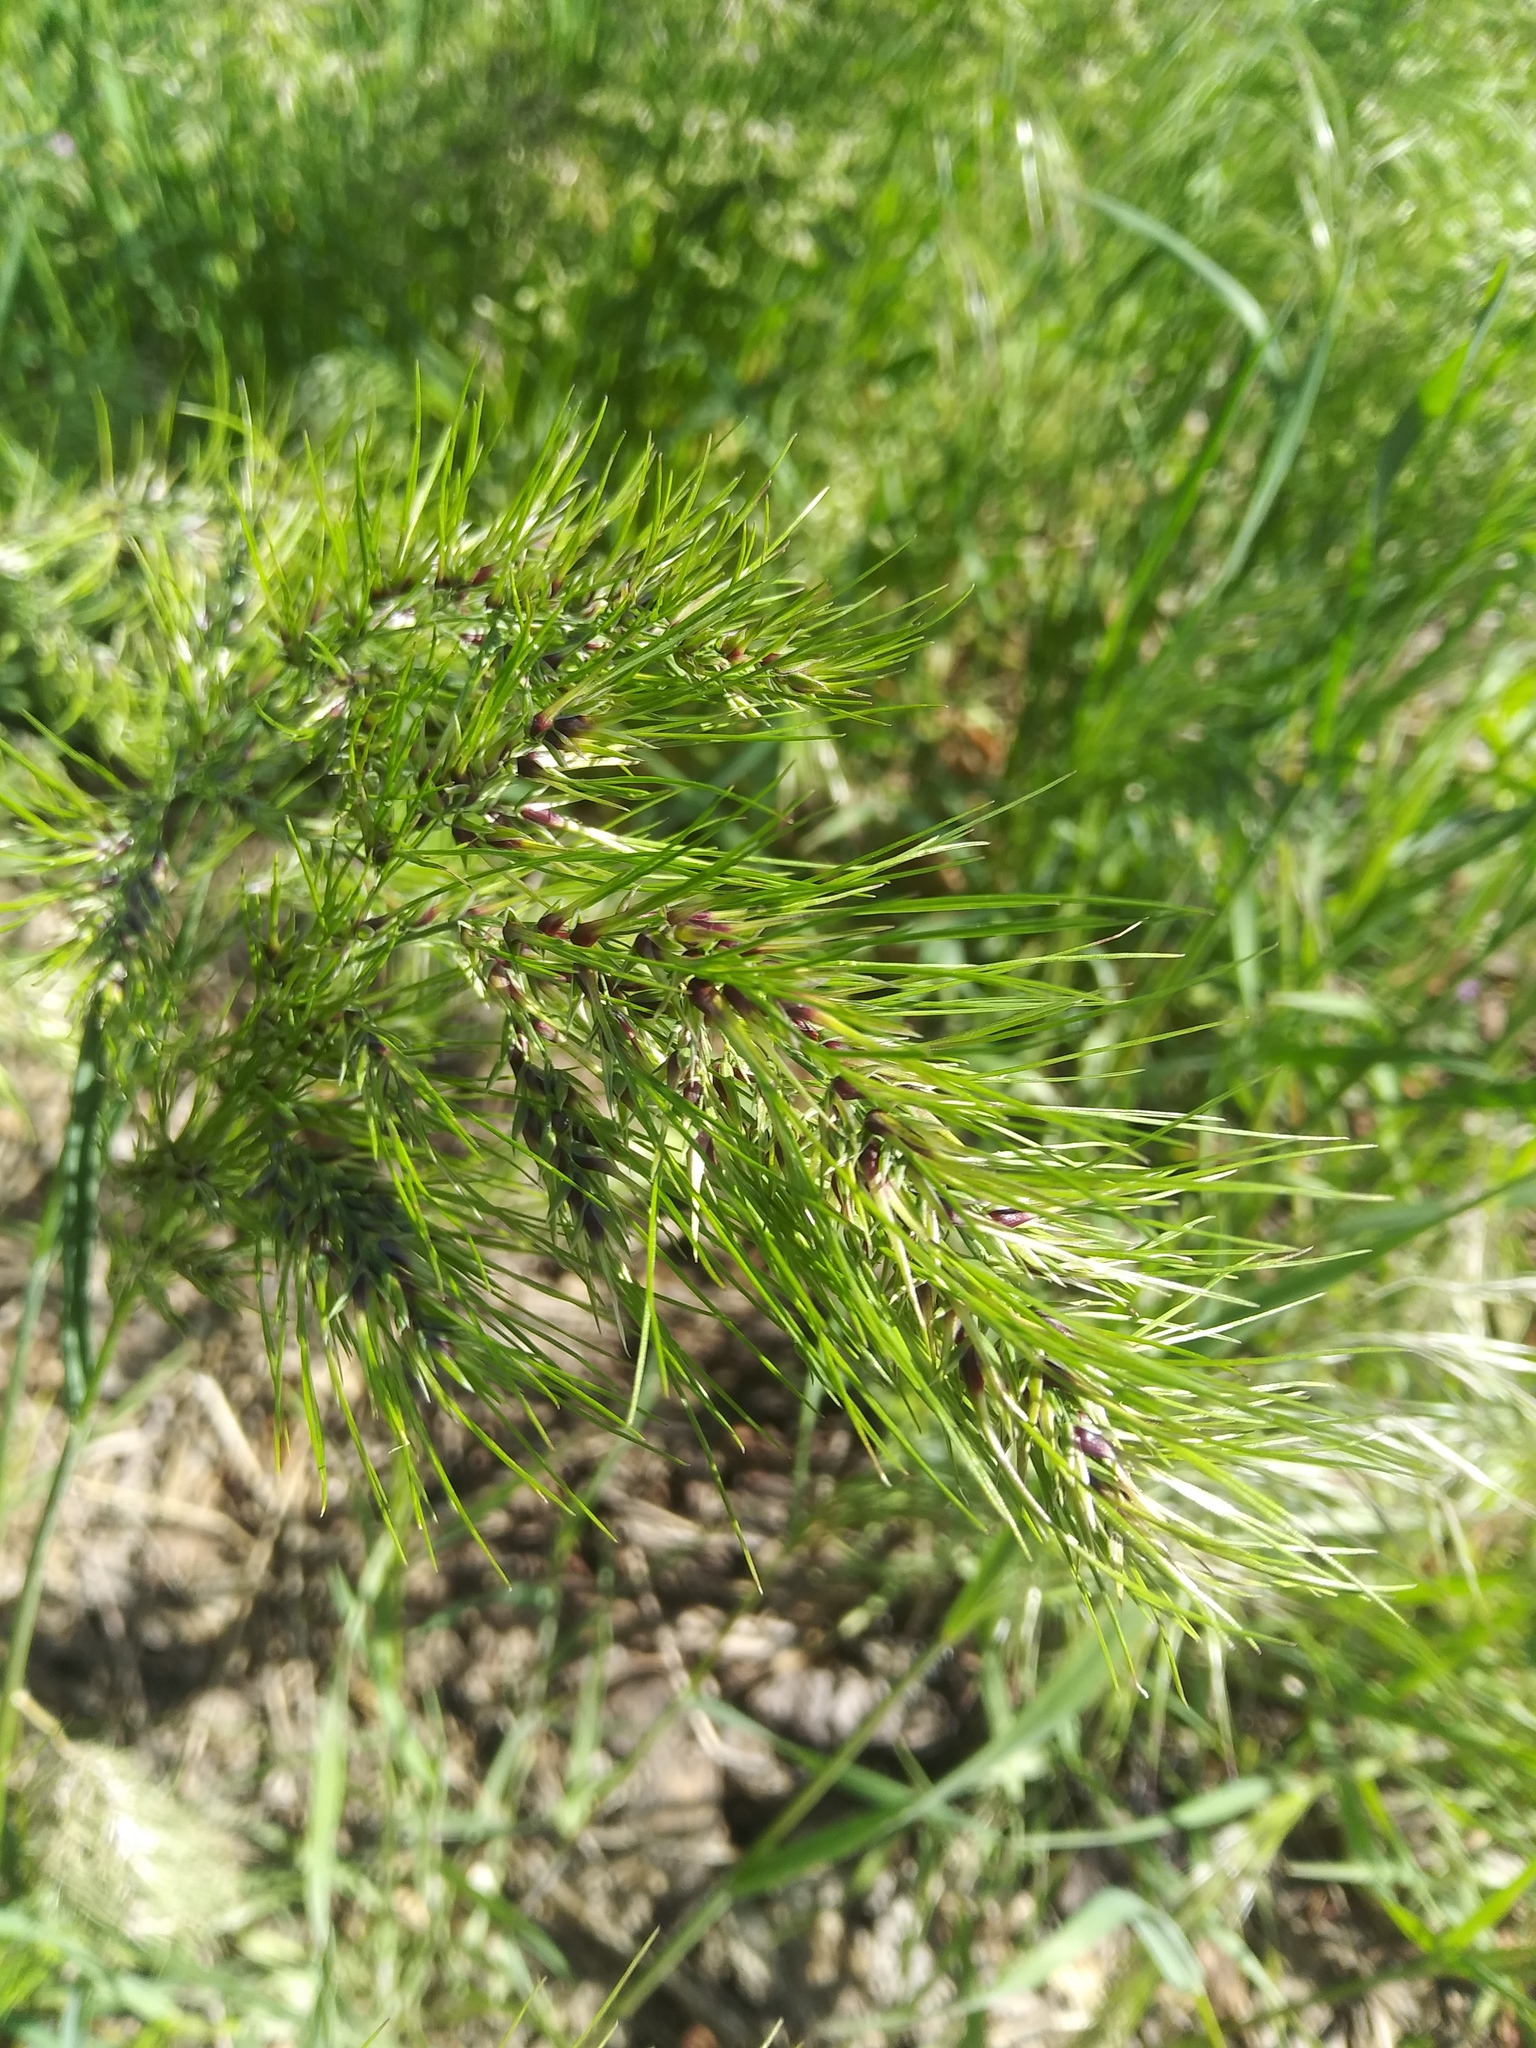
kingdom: Plantae
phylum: Tracheophyta
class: Liliopsida
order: Poales
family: Poaceae
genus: Poa
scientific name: Poa bulbosa
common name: Bulbous bluegrass
